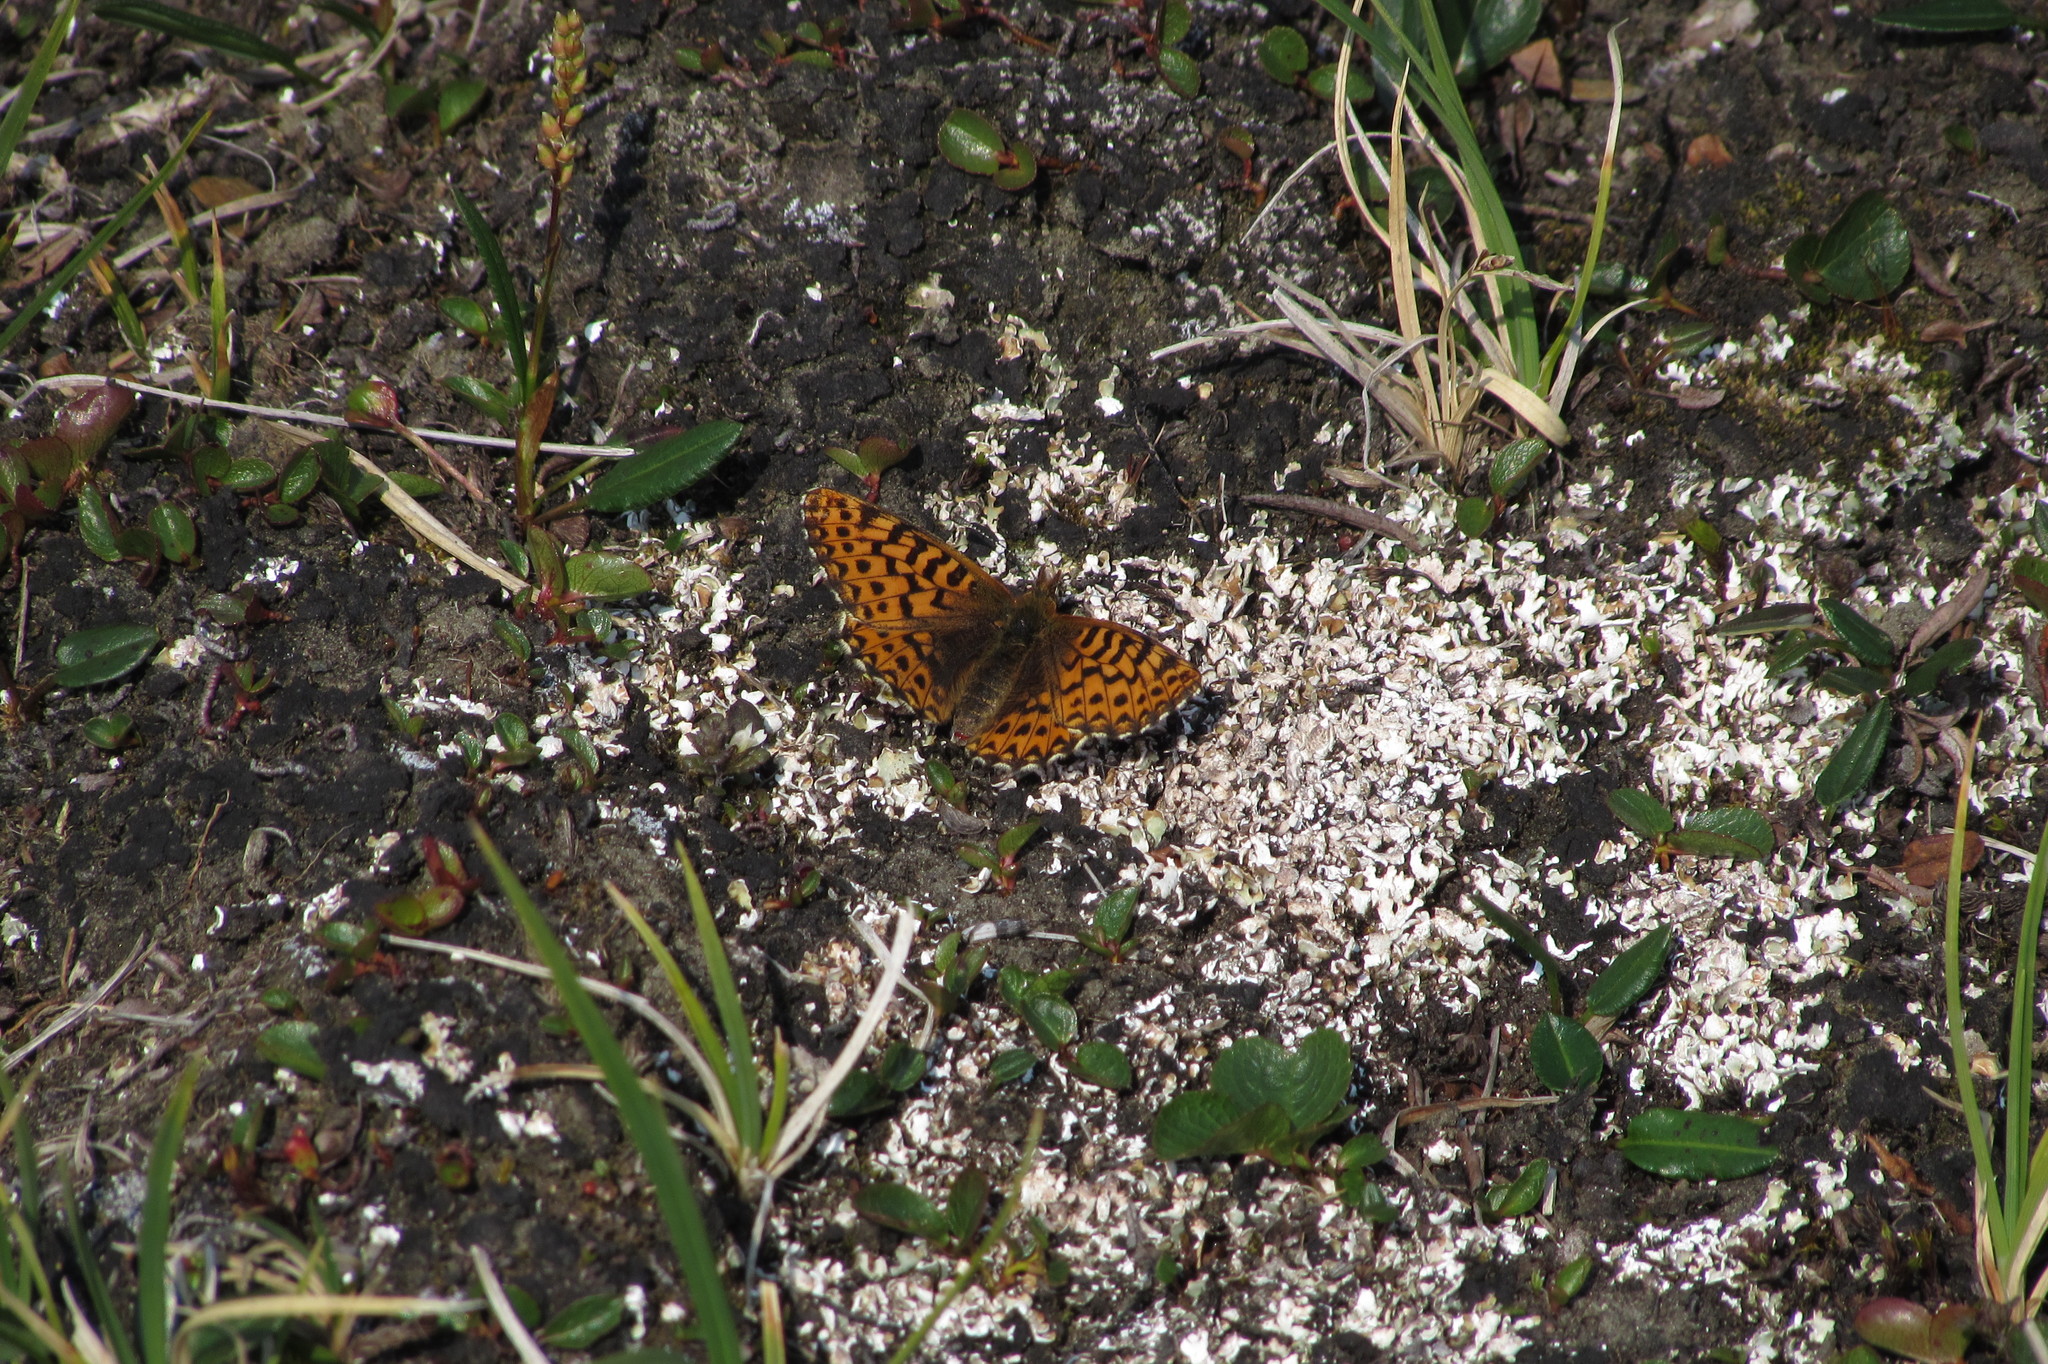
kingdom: Animalia
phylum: Arthropoda
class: Insecta
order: Lepidoptera
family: Nymphalidae
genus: Boloria
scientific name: Boloria chariclea
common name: Arctic fritillary
